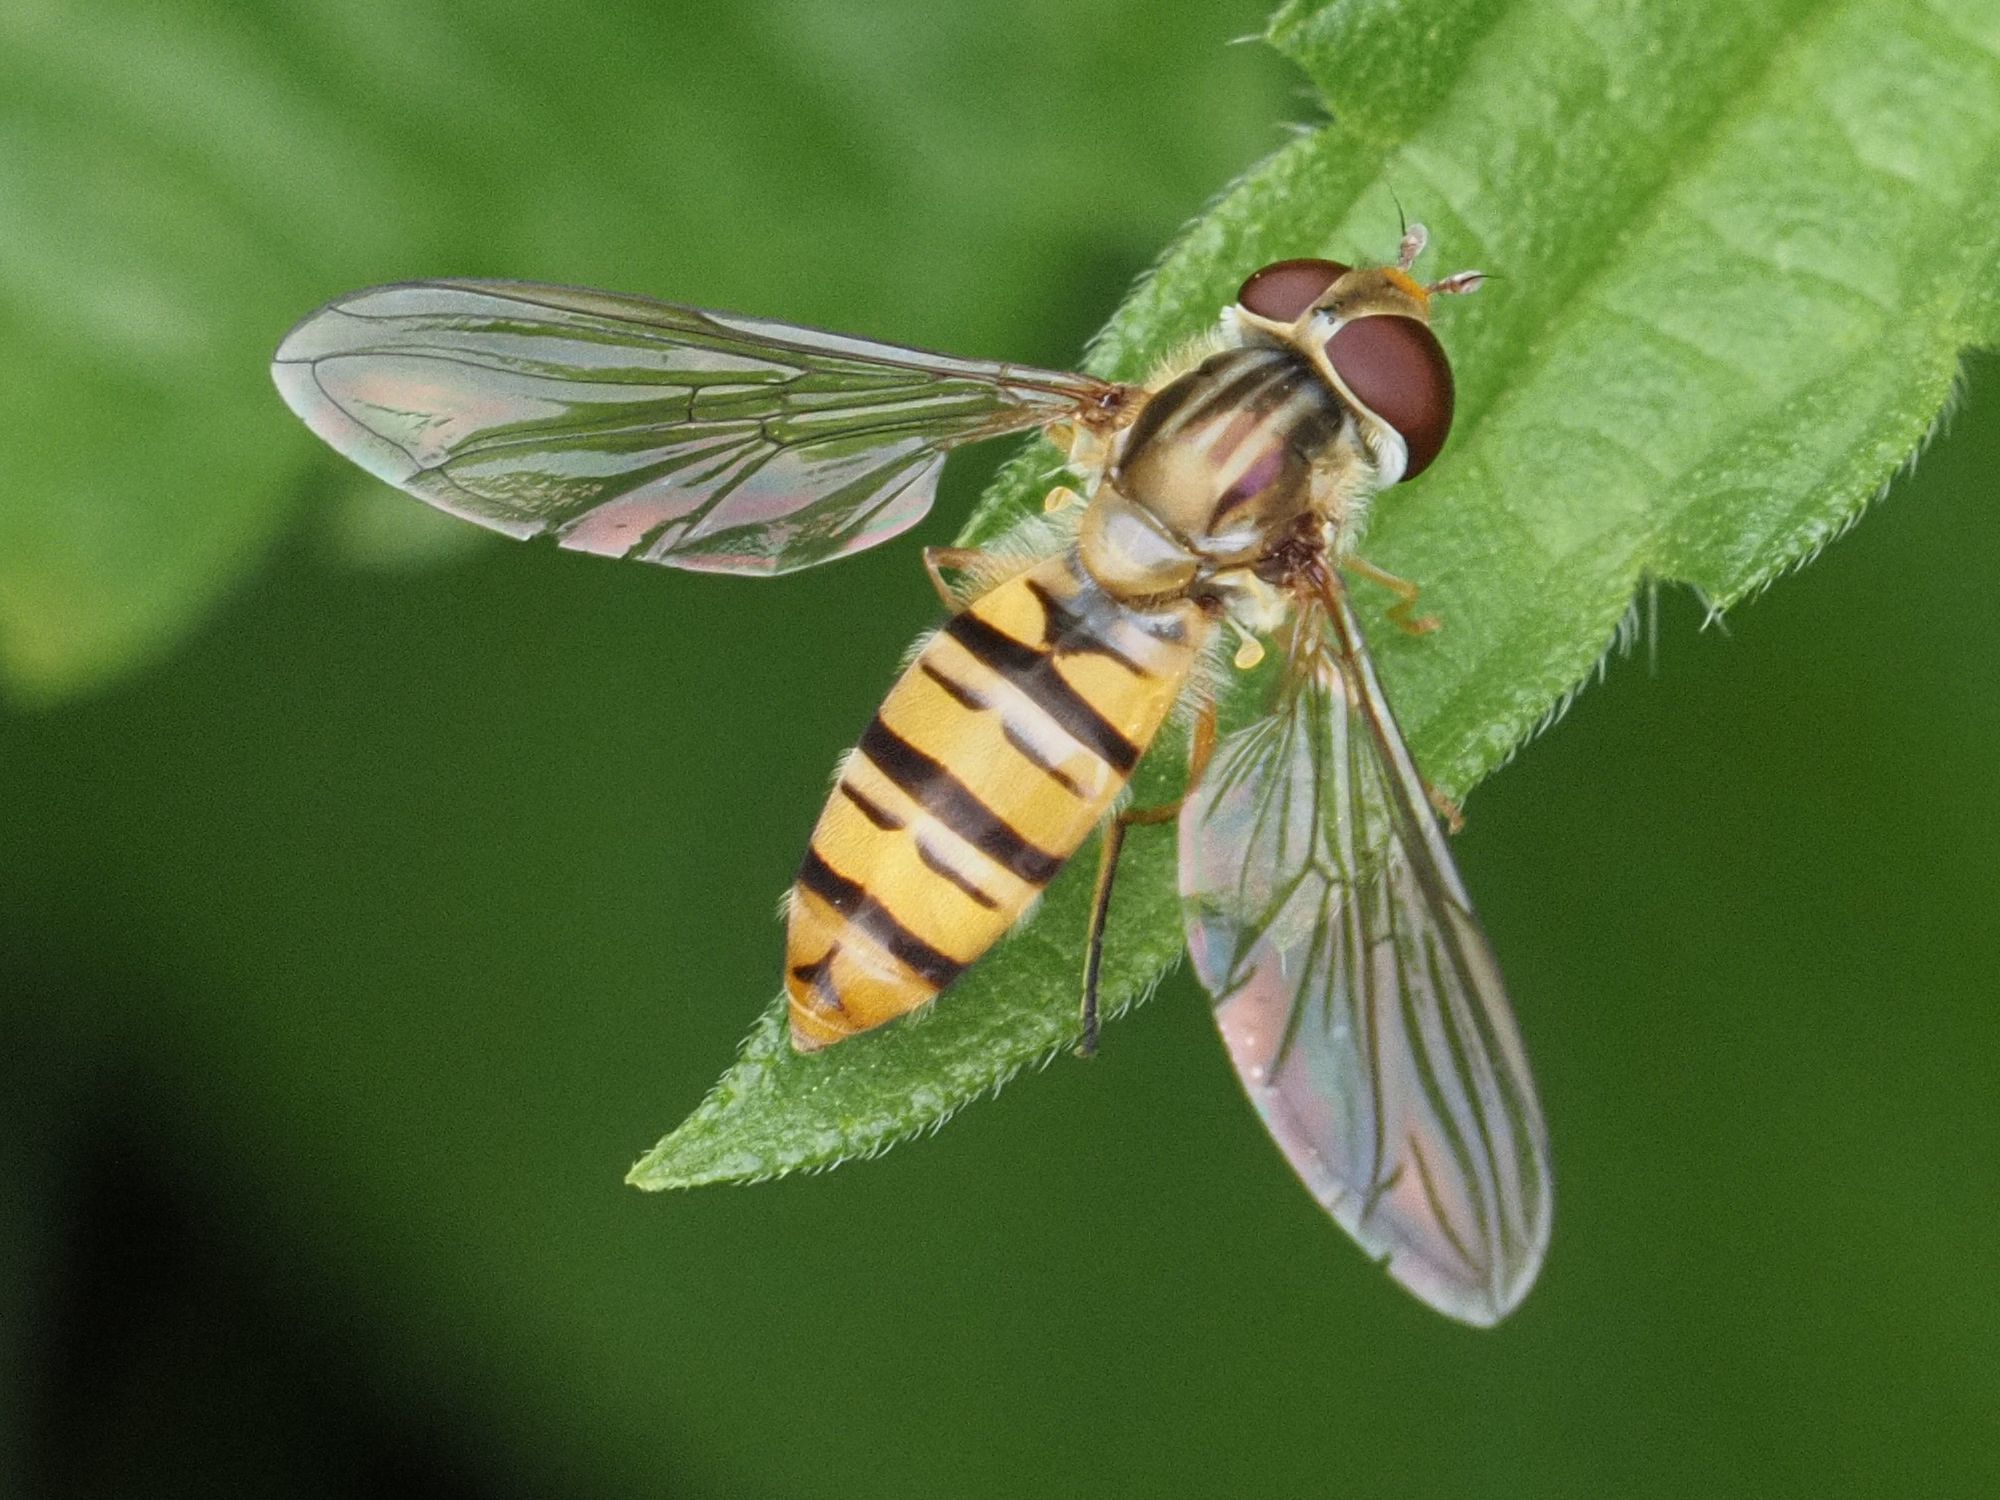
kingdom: Animalia
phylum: Arthropoda
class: Insecta
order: Diptera
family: Syrphidae
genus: Episyrphus
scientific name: Episyrphus balteatus
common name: Marmalade hoverfly
